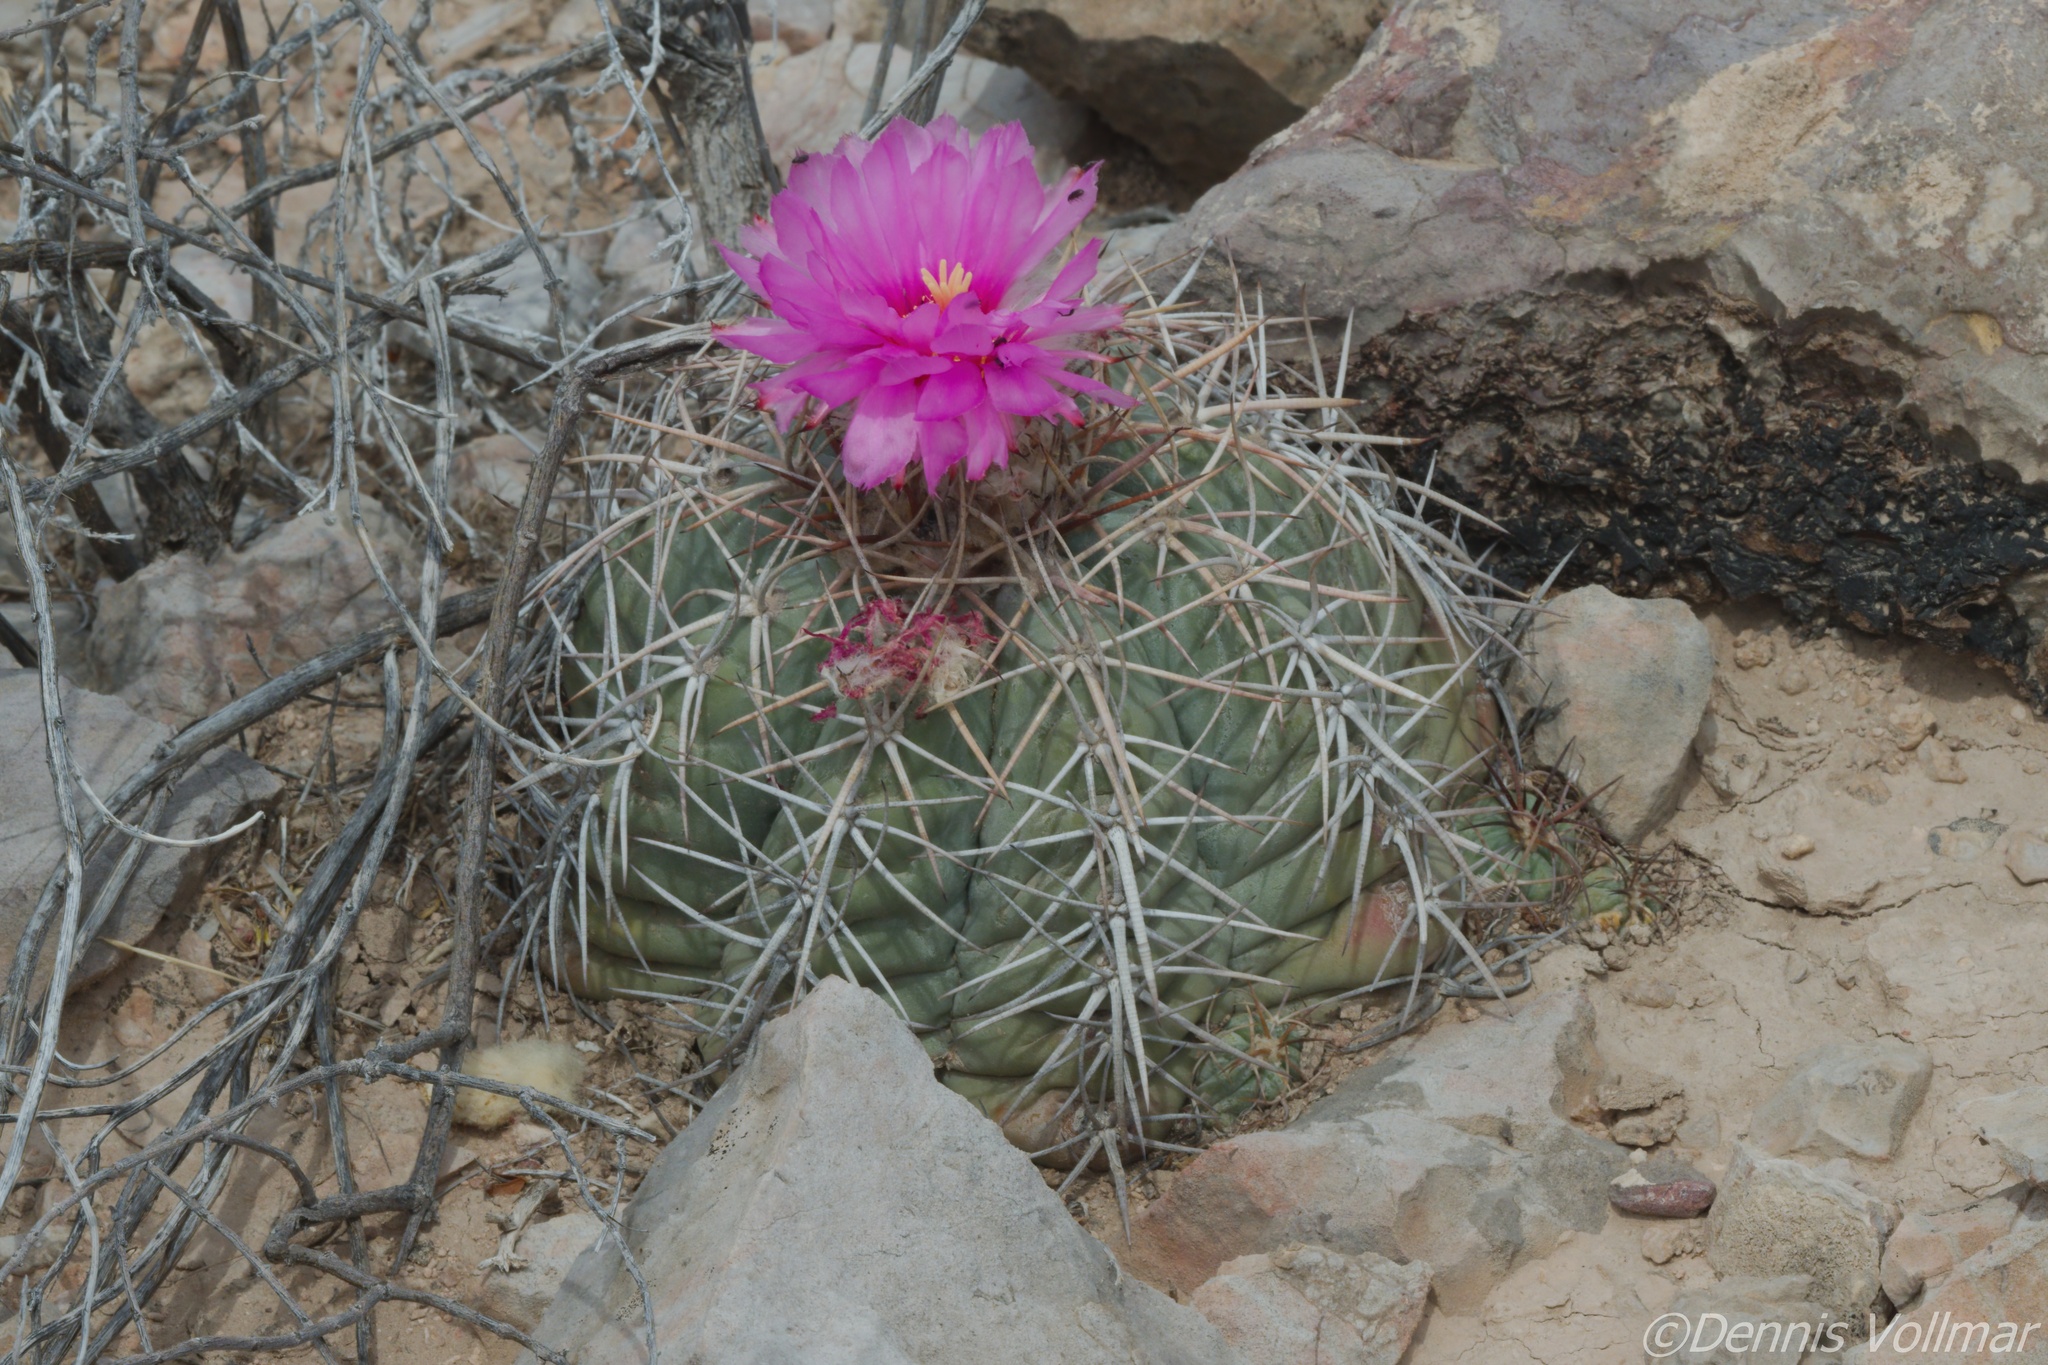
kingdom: Plantae
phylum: Tracheophyta
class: Magnoliopsida
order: Caryophyllales
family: Cactaceae
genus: Echinocactus
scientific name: Echinocactus horizonthalonius
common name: Devilshead
